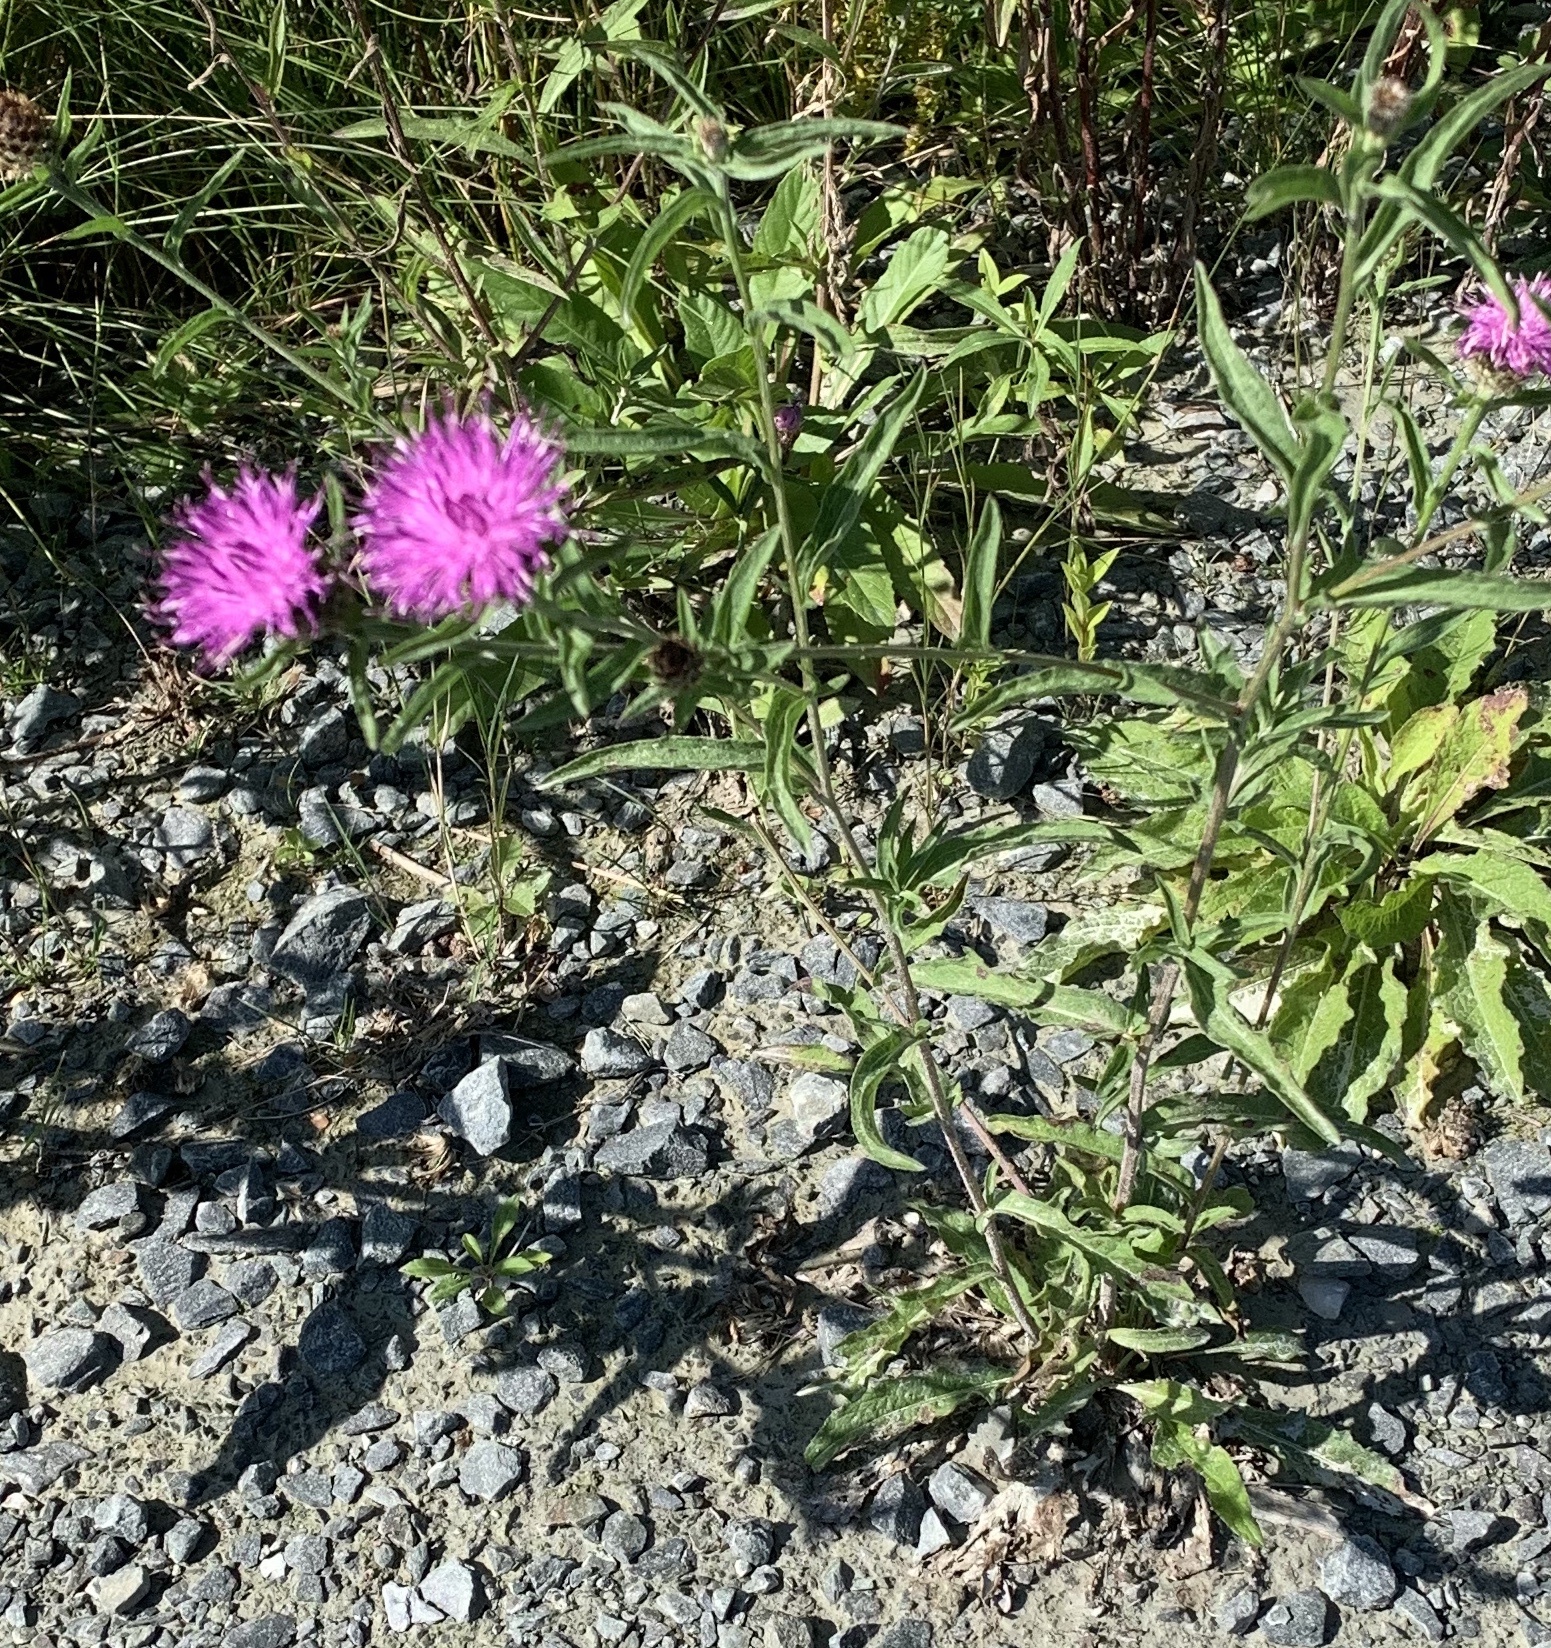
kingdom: Plantae
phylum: Tracheophyta
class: Magnoliopsida
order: Asterales
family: Asteraceae
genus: Centaurea
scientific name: Centaurea nigra
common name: Lesser knapweed
